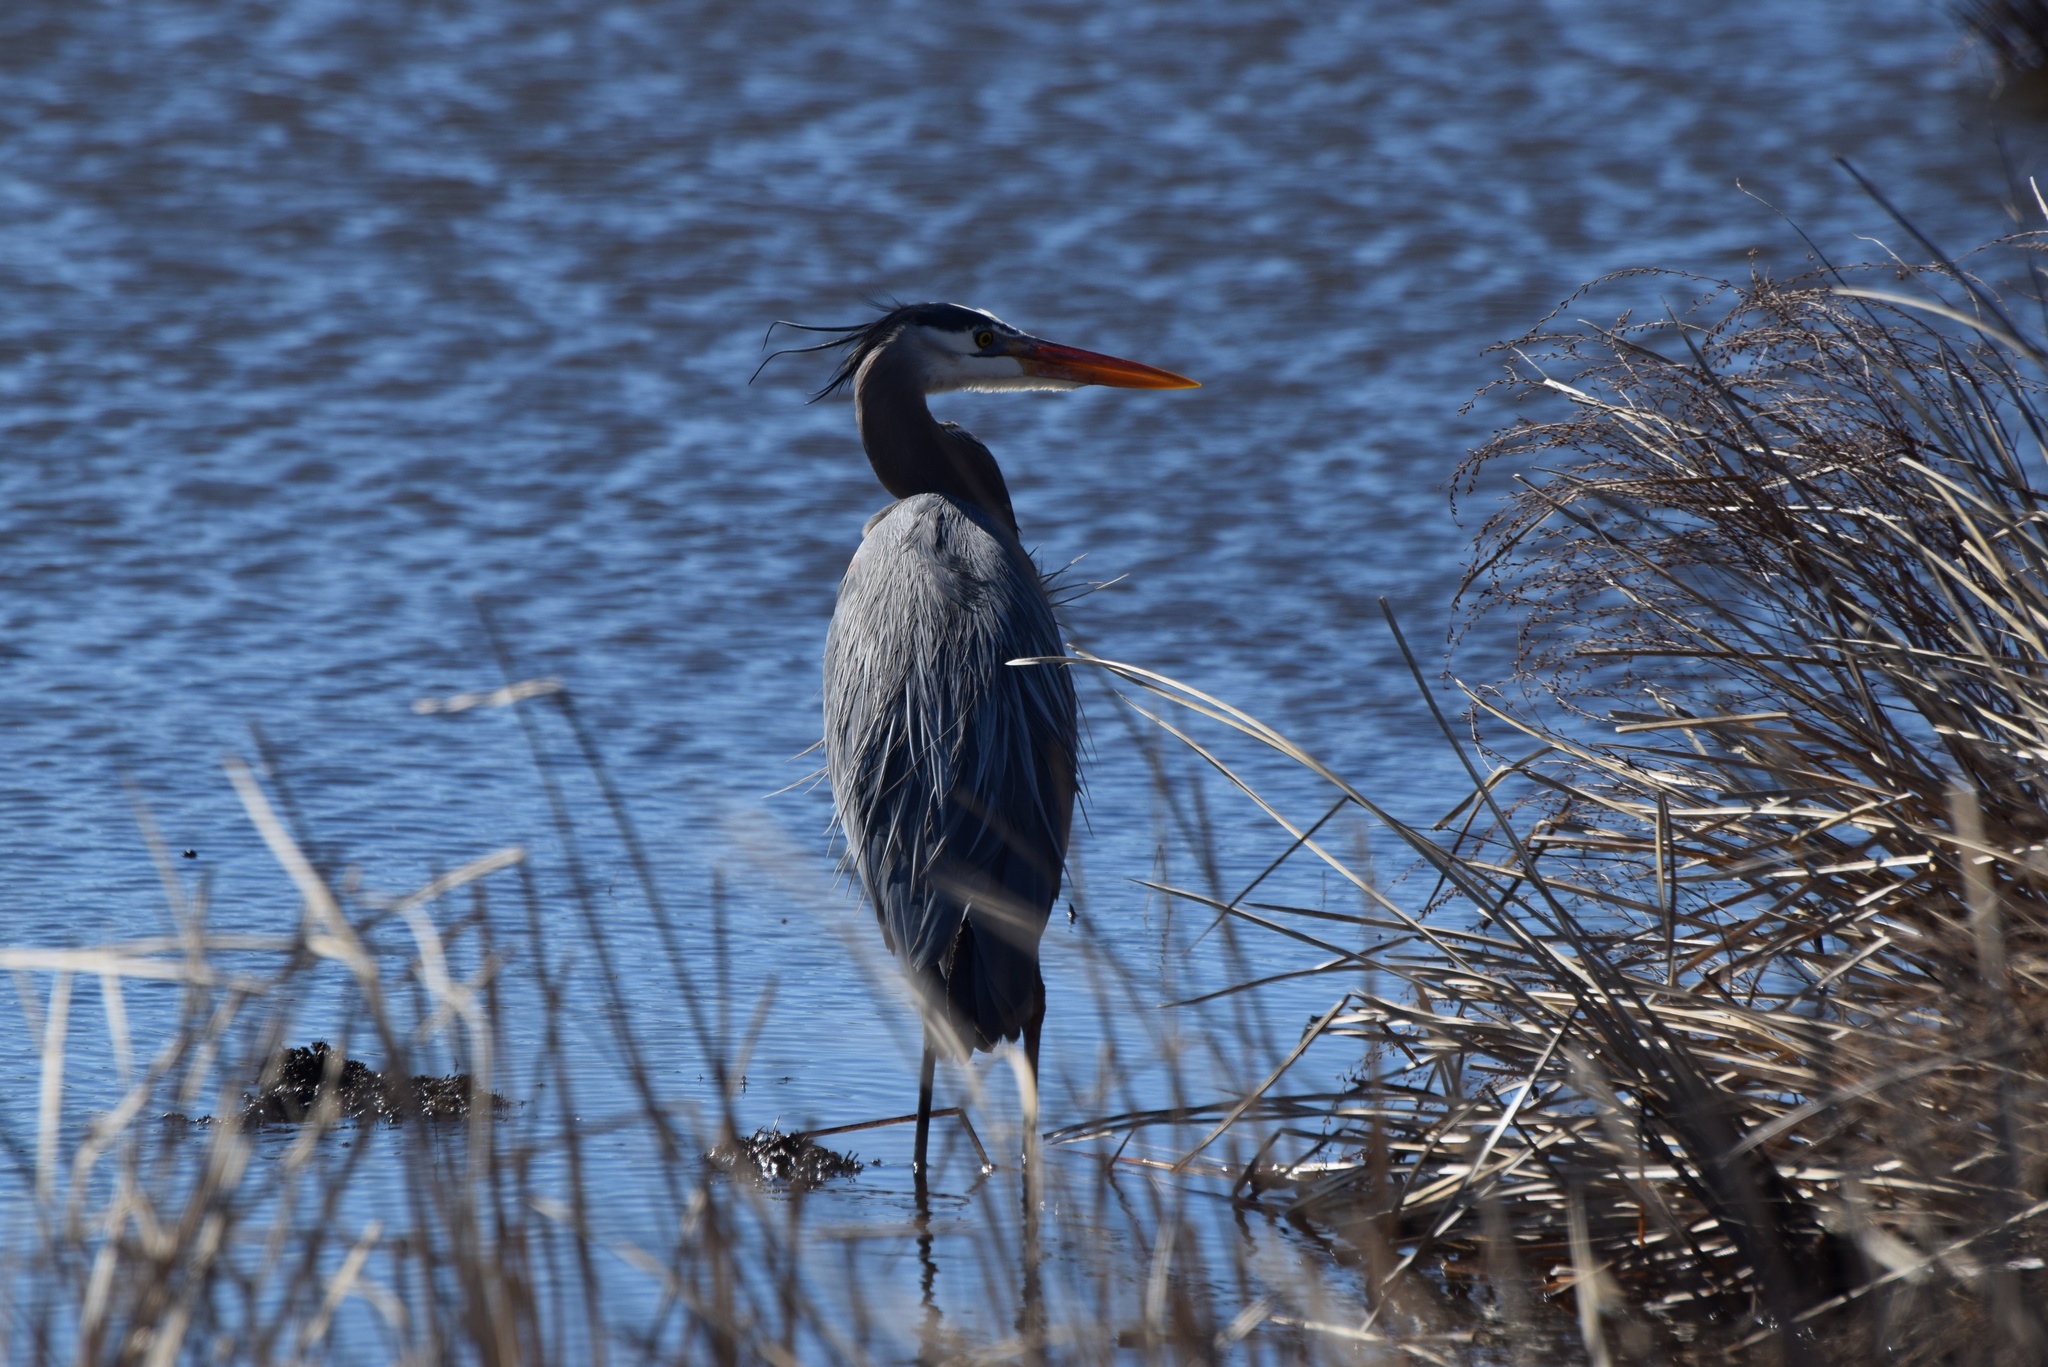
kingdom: Animalia
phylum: Chordata
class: Aves
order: Pelecaniformes
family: Ardeidae
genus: Ardea
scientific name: Ardea herodias
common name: Great blue heron
